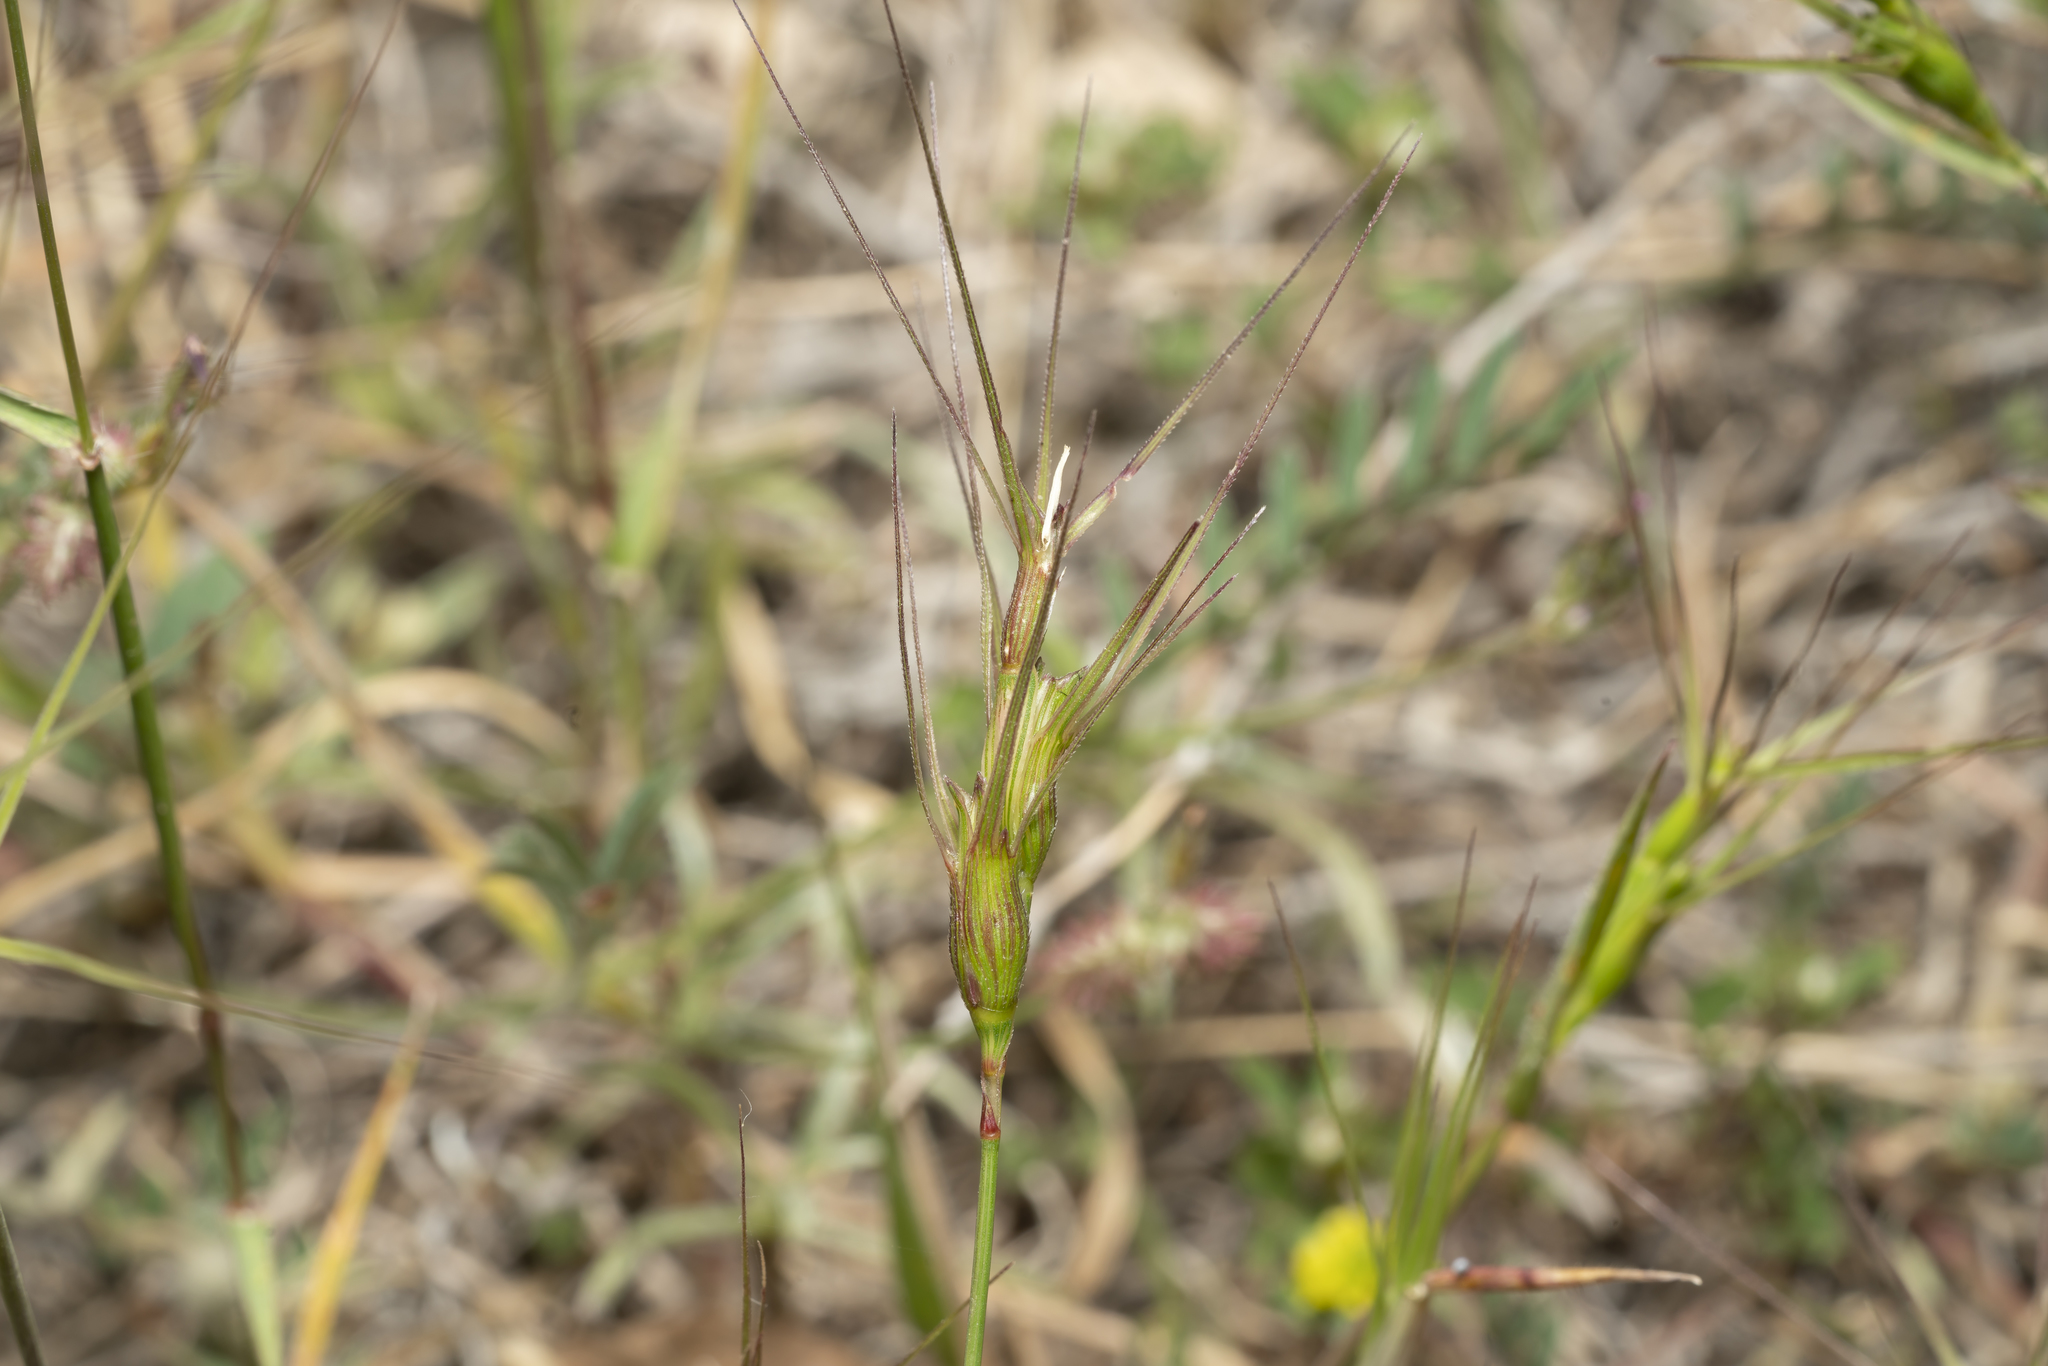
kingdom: Plantae
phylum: Tracheophyta
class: Liliopsida
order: Poales
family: Poaceae
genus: Aegilops
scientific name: Aegilops triuncialis
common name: Barb goat grass
